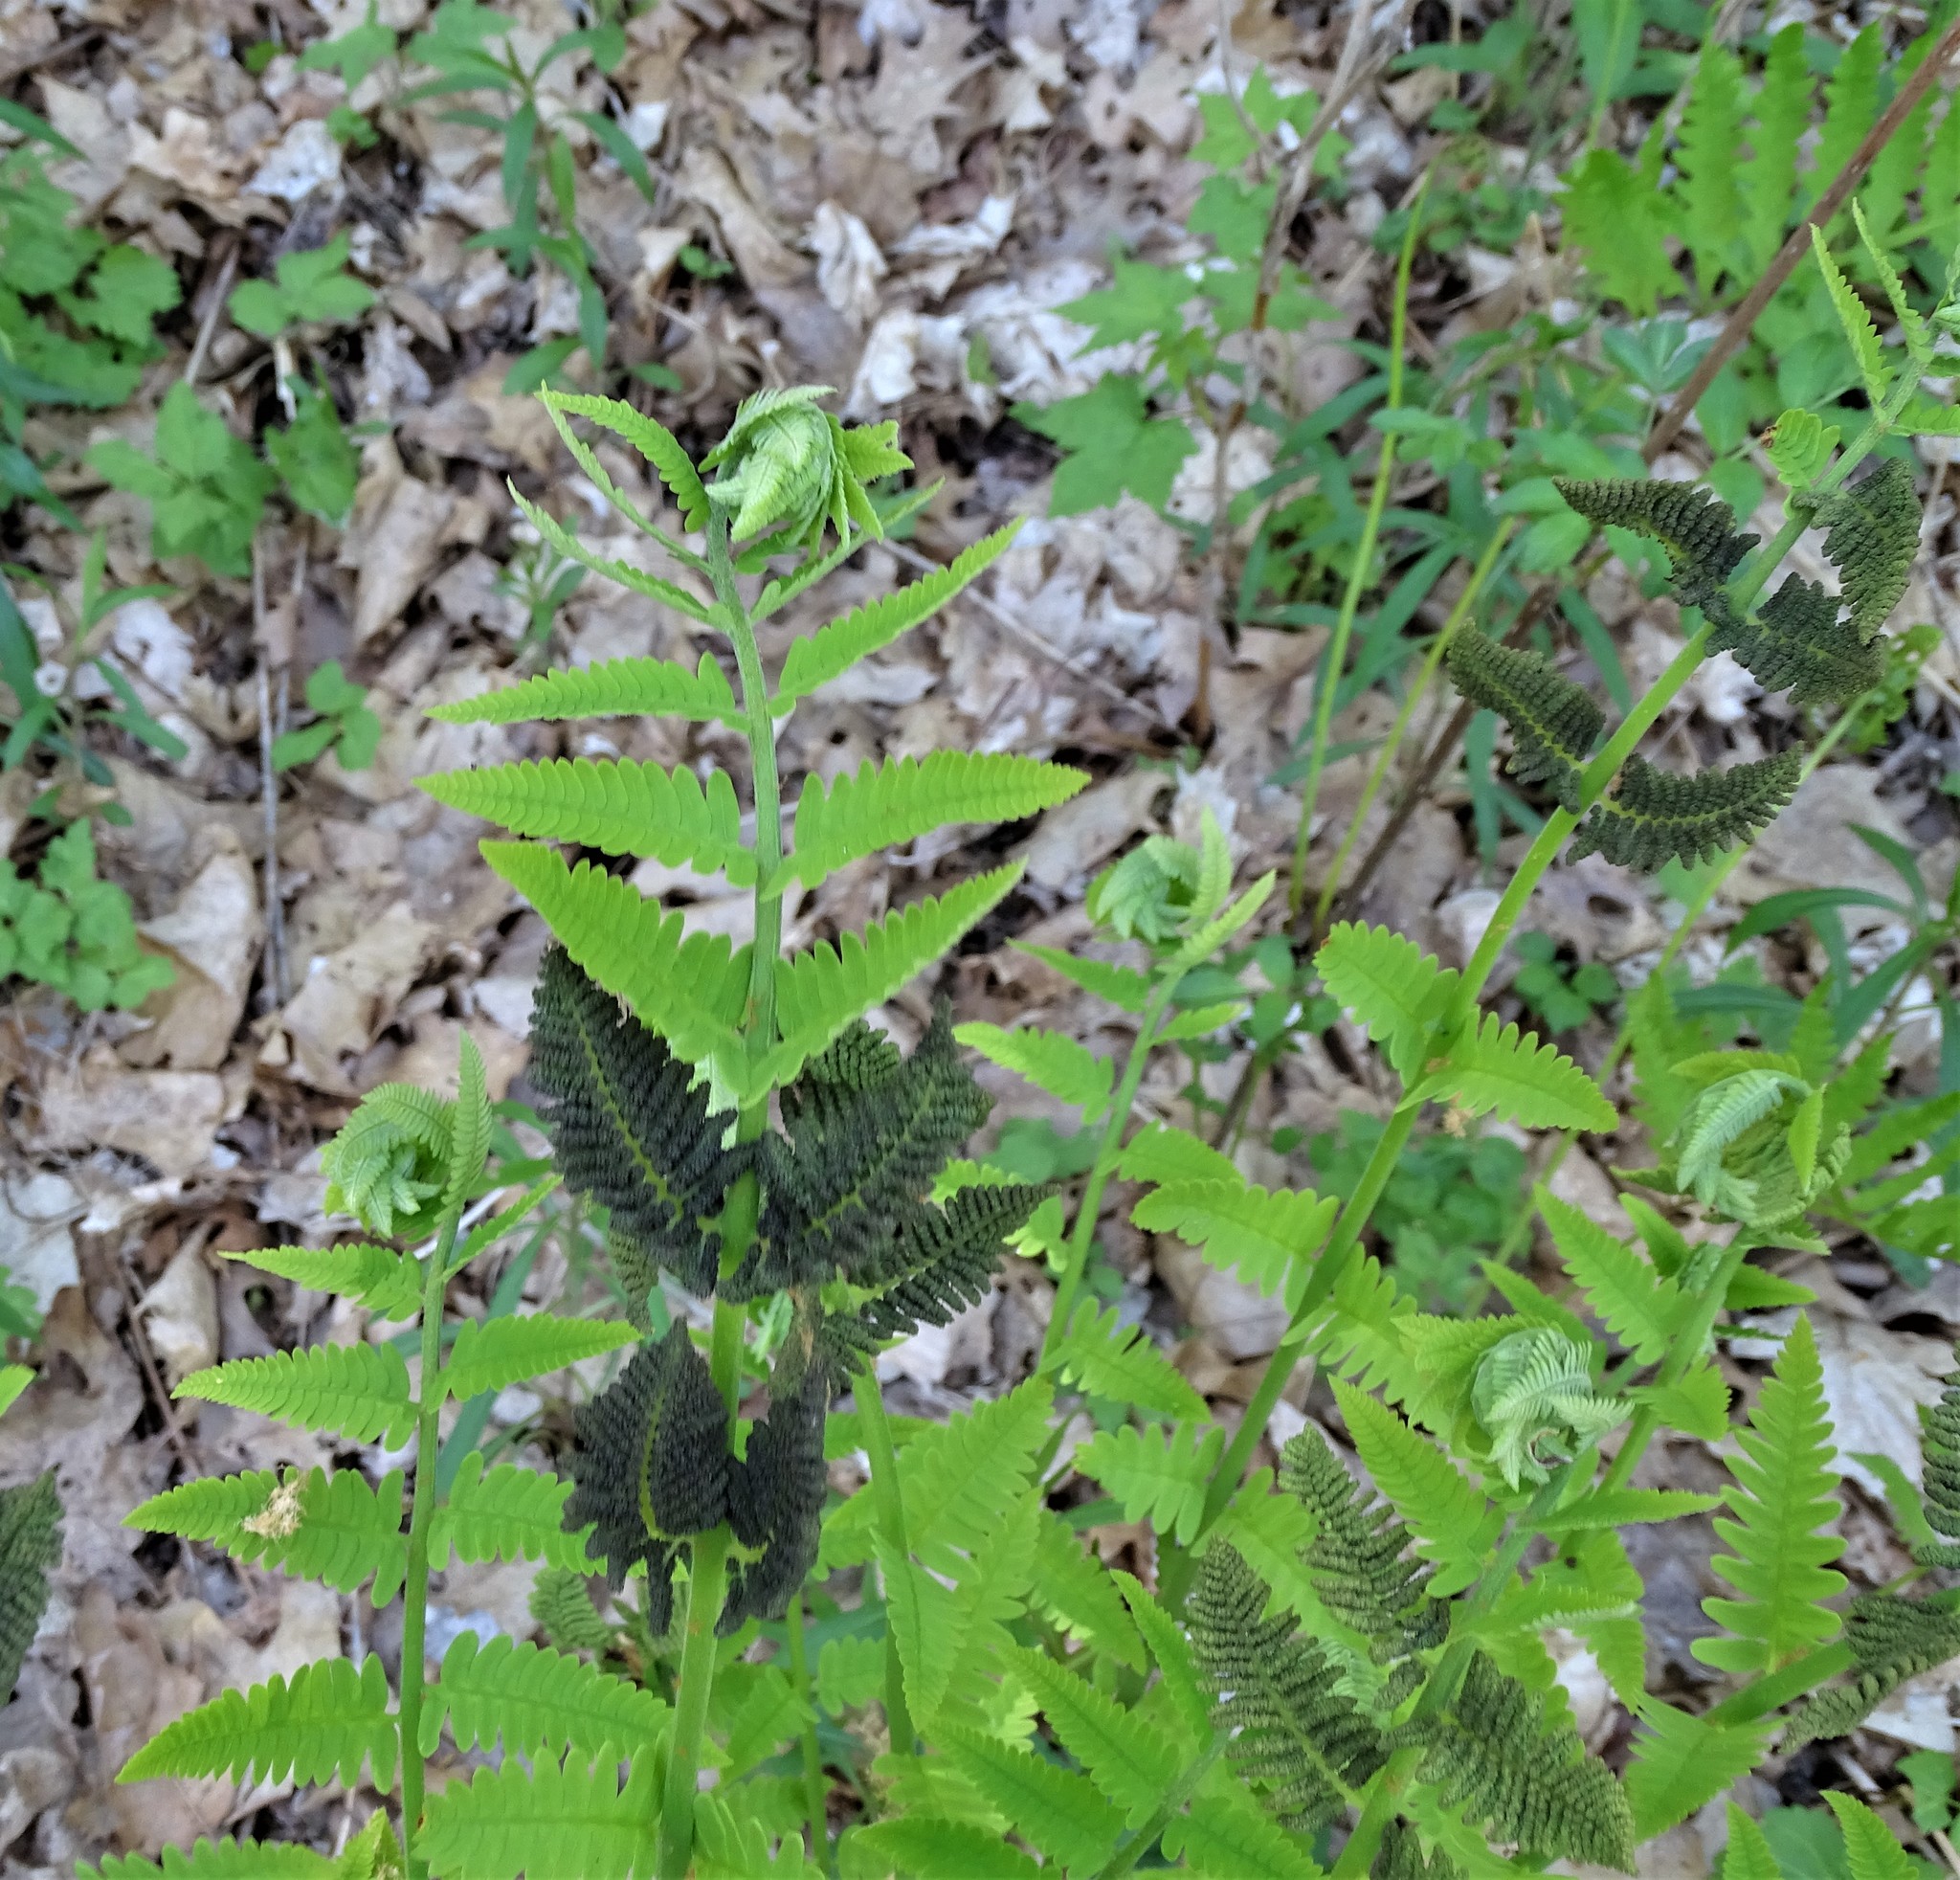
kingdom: Plantae
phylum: Tracheophyta
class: Polypodiopsida
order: Osmundales
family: Osmundaceae
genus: Claytosmunda
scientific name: Claytosmunda claytoniana
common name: Clayton's fern
